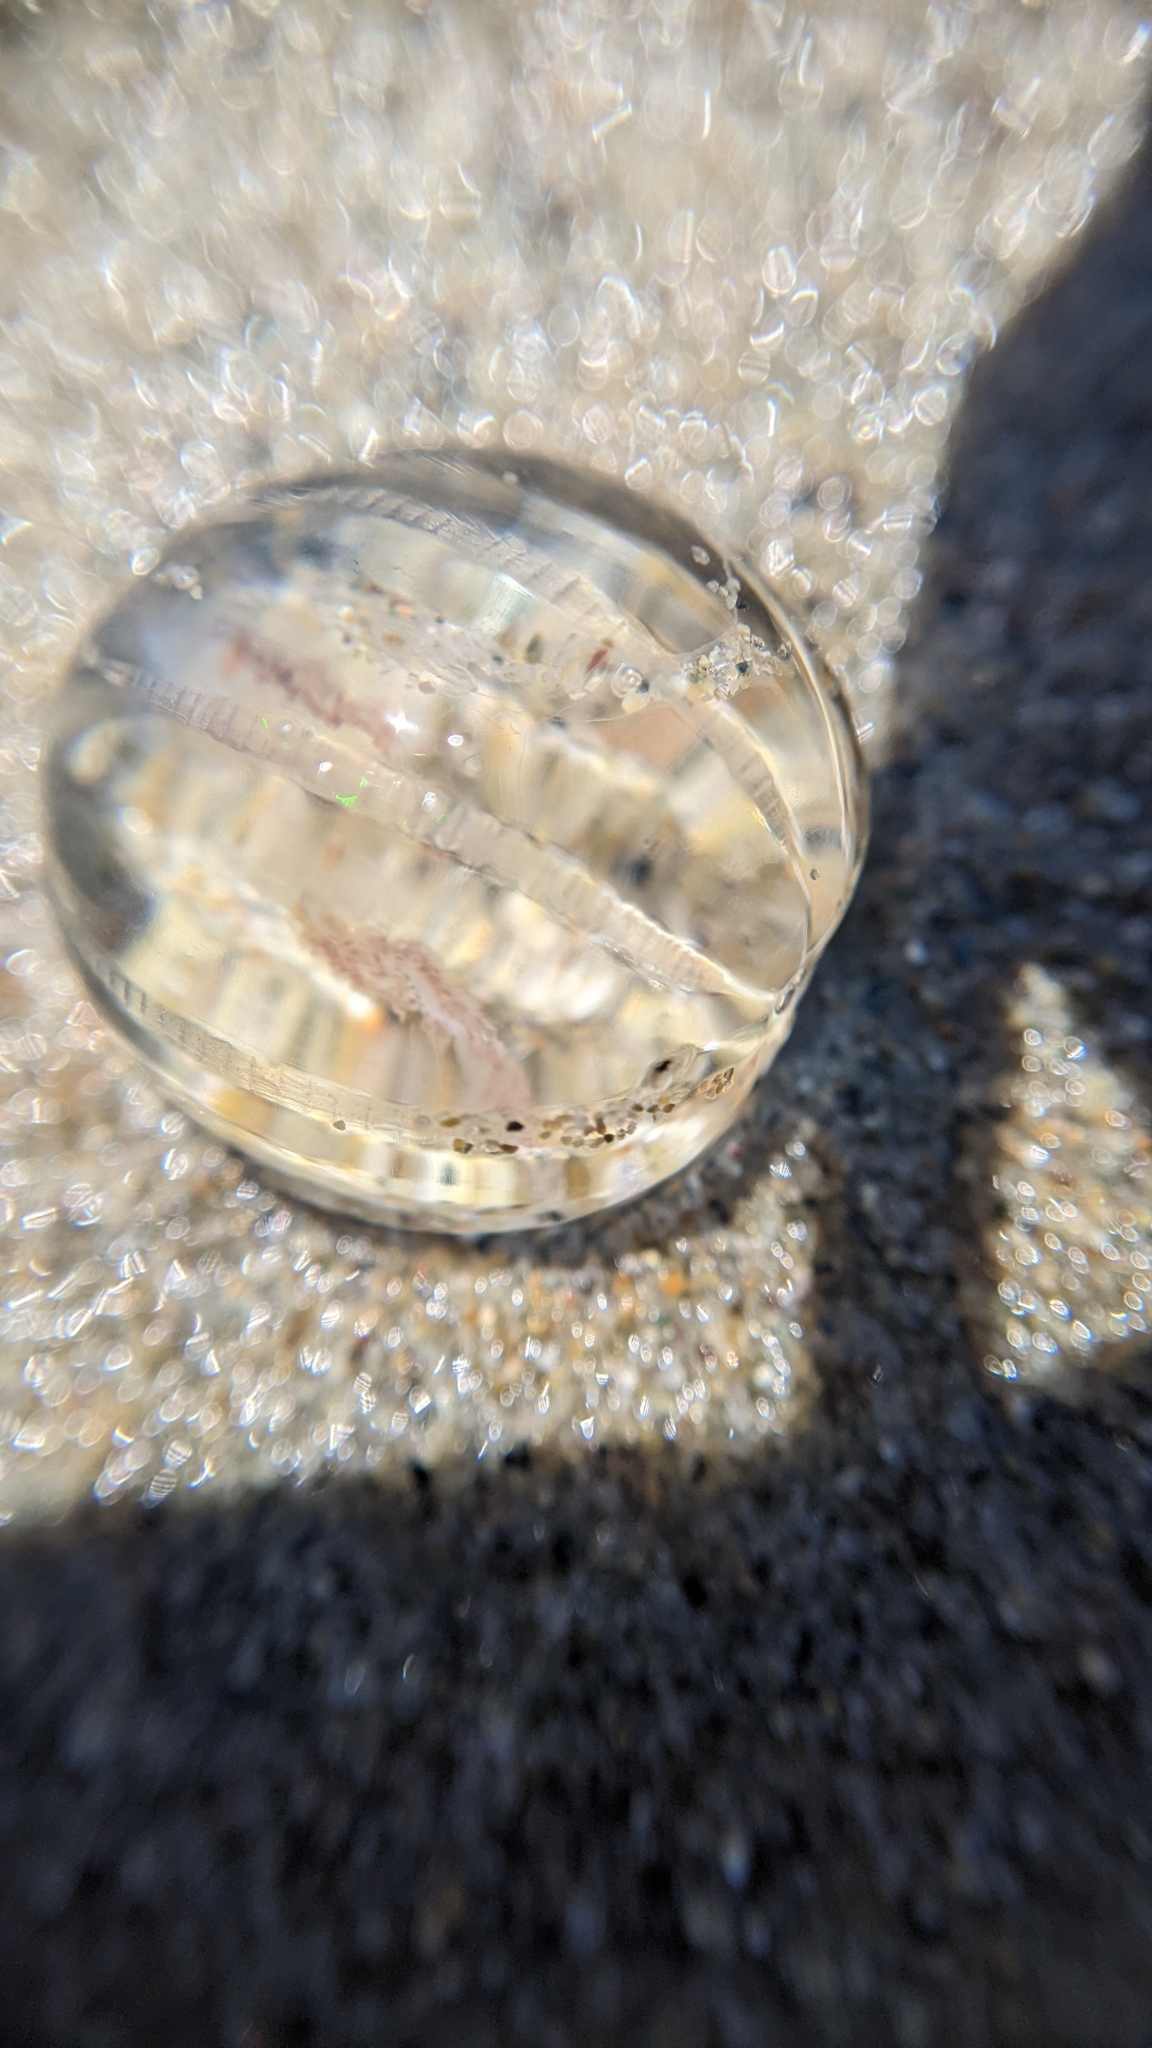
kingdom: Animalia
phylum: Ctenophora
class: Tentaculata
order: Cydippida
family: Pleurobrachiidae
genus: Pleurobrachia
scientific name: Pleurobrachia bachei
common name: Pacific sea gooseberry
